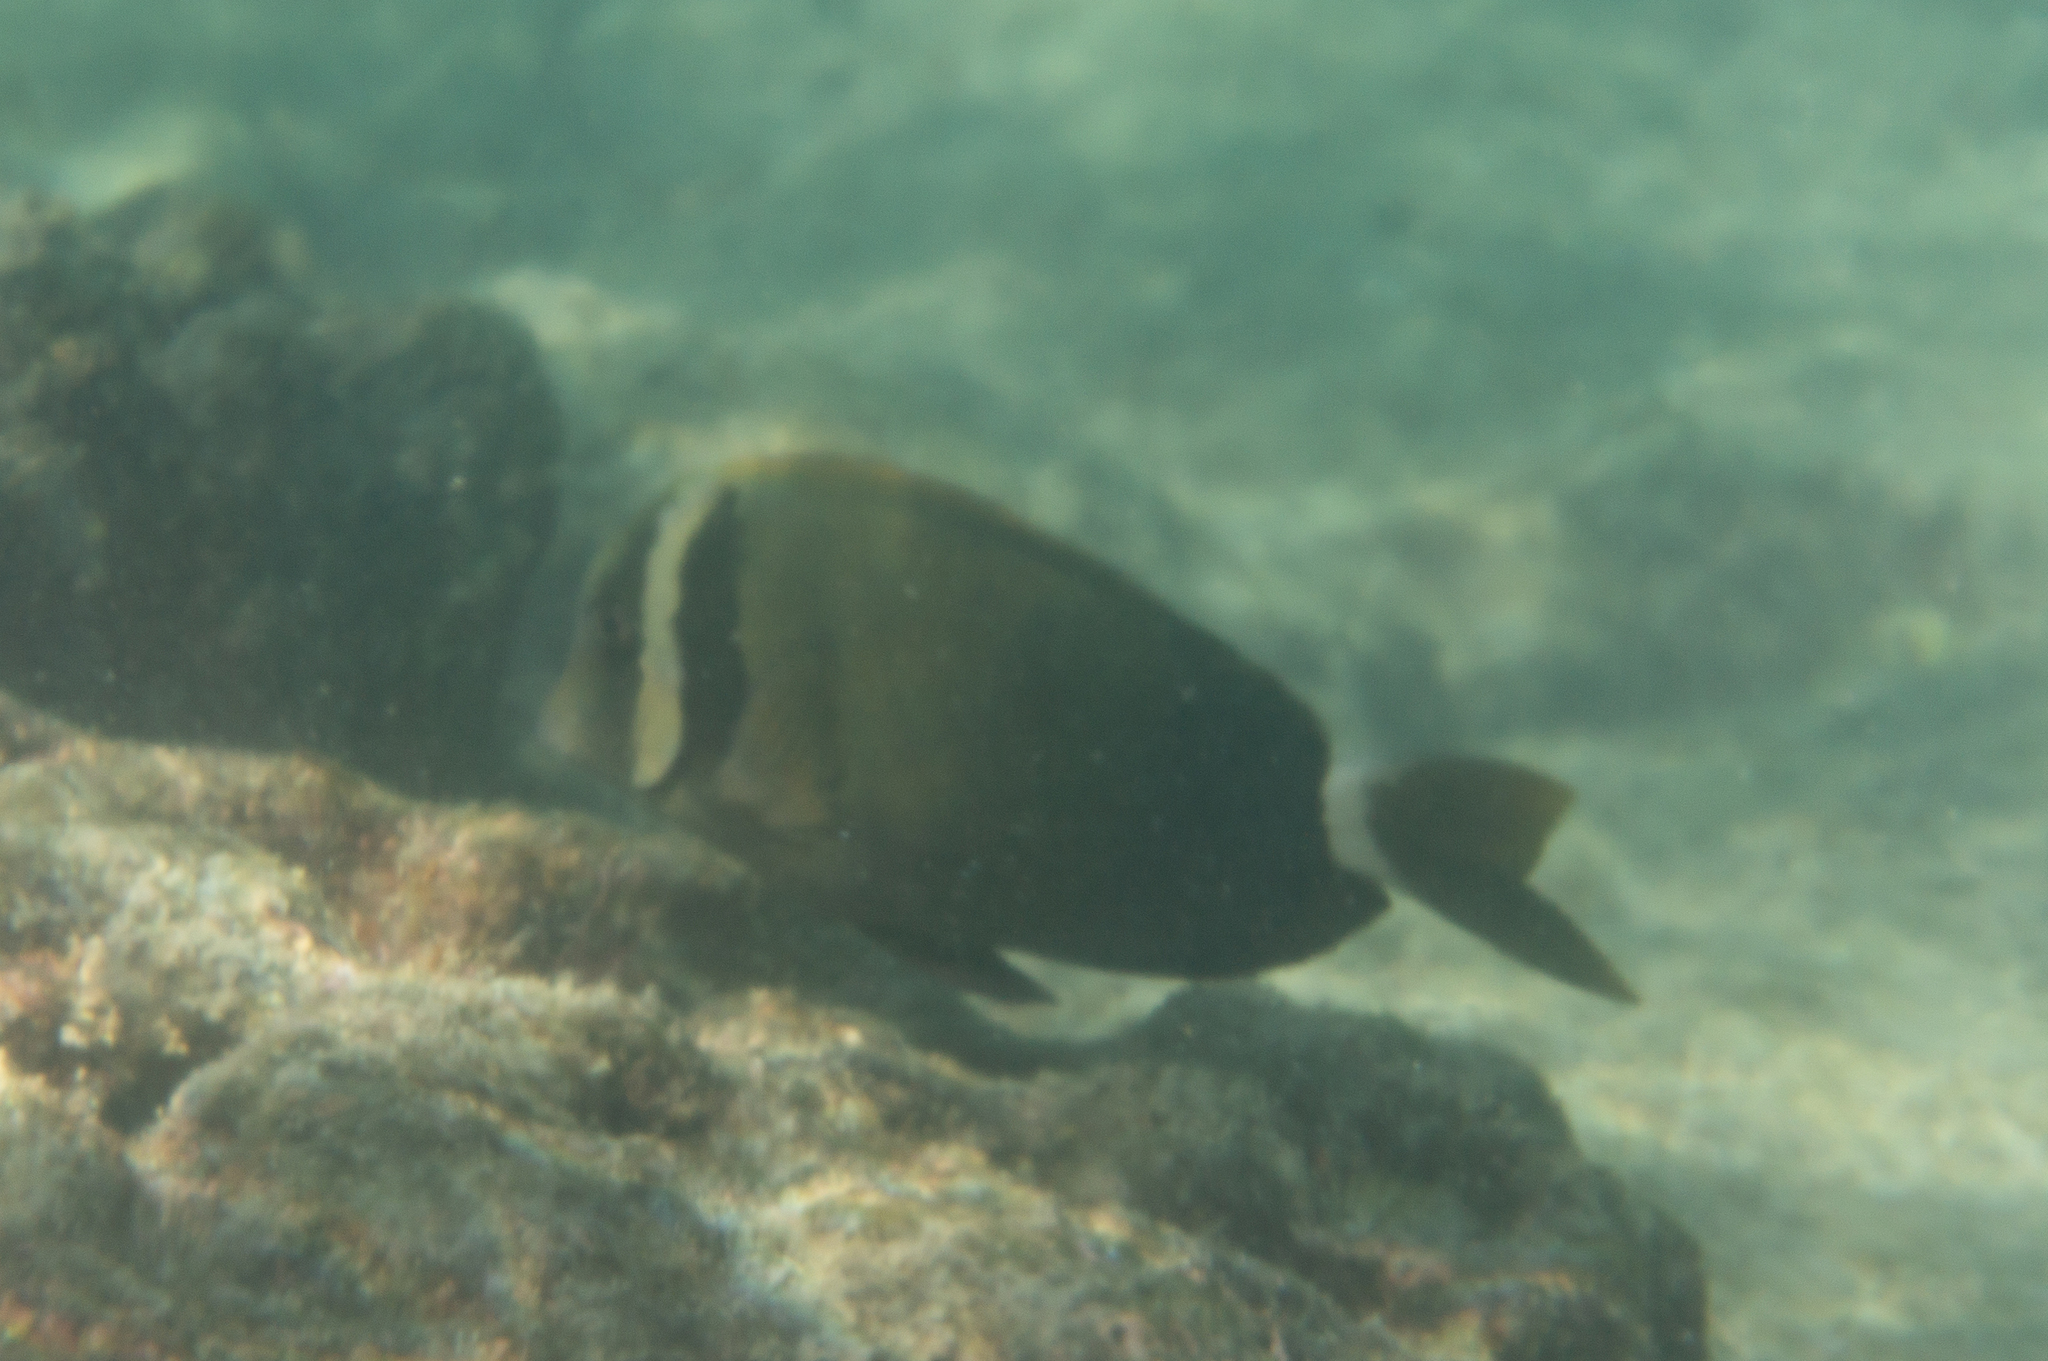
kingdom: Animalia
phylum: Chordata
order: Perciformes
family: Acanthuridae
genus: Acanthurus
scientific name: Acanthurus leucopareius
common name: Head-band surgeonfish
